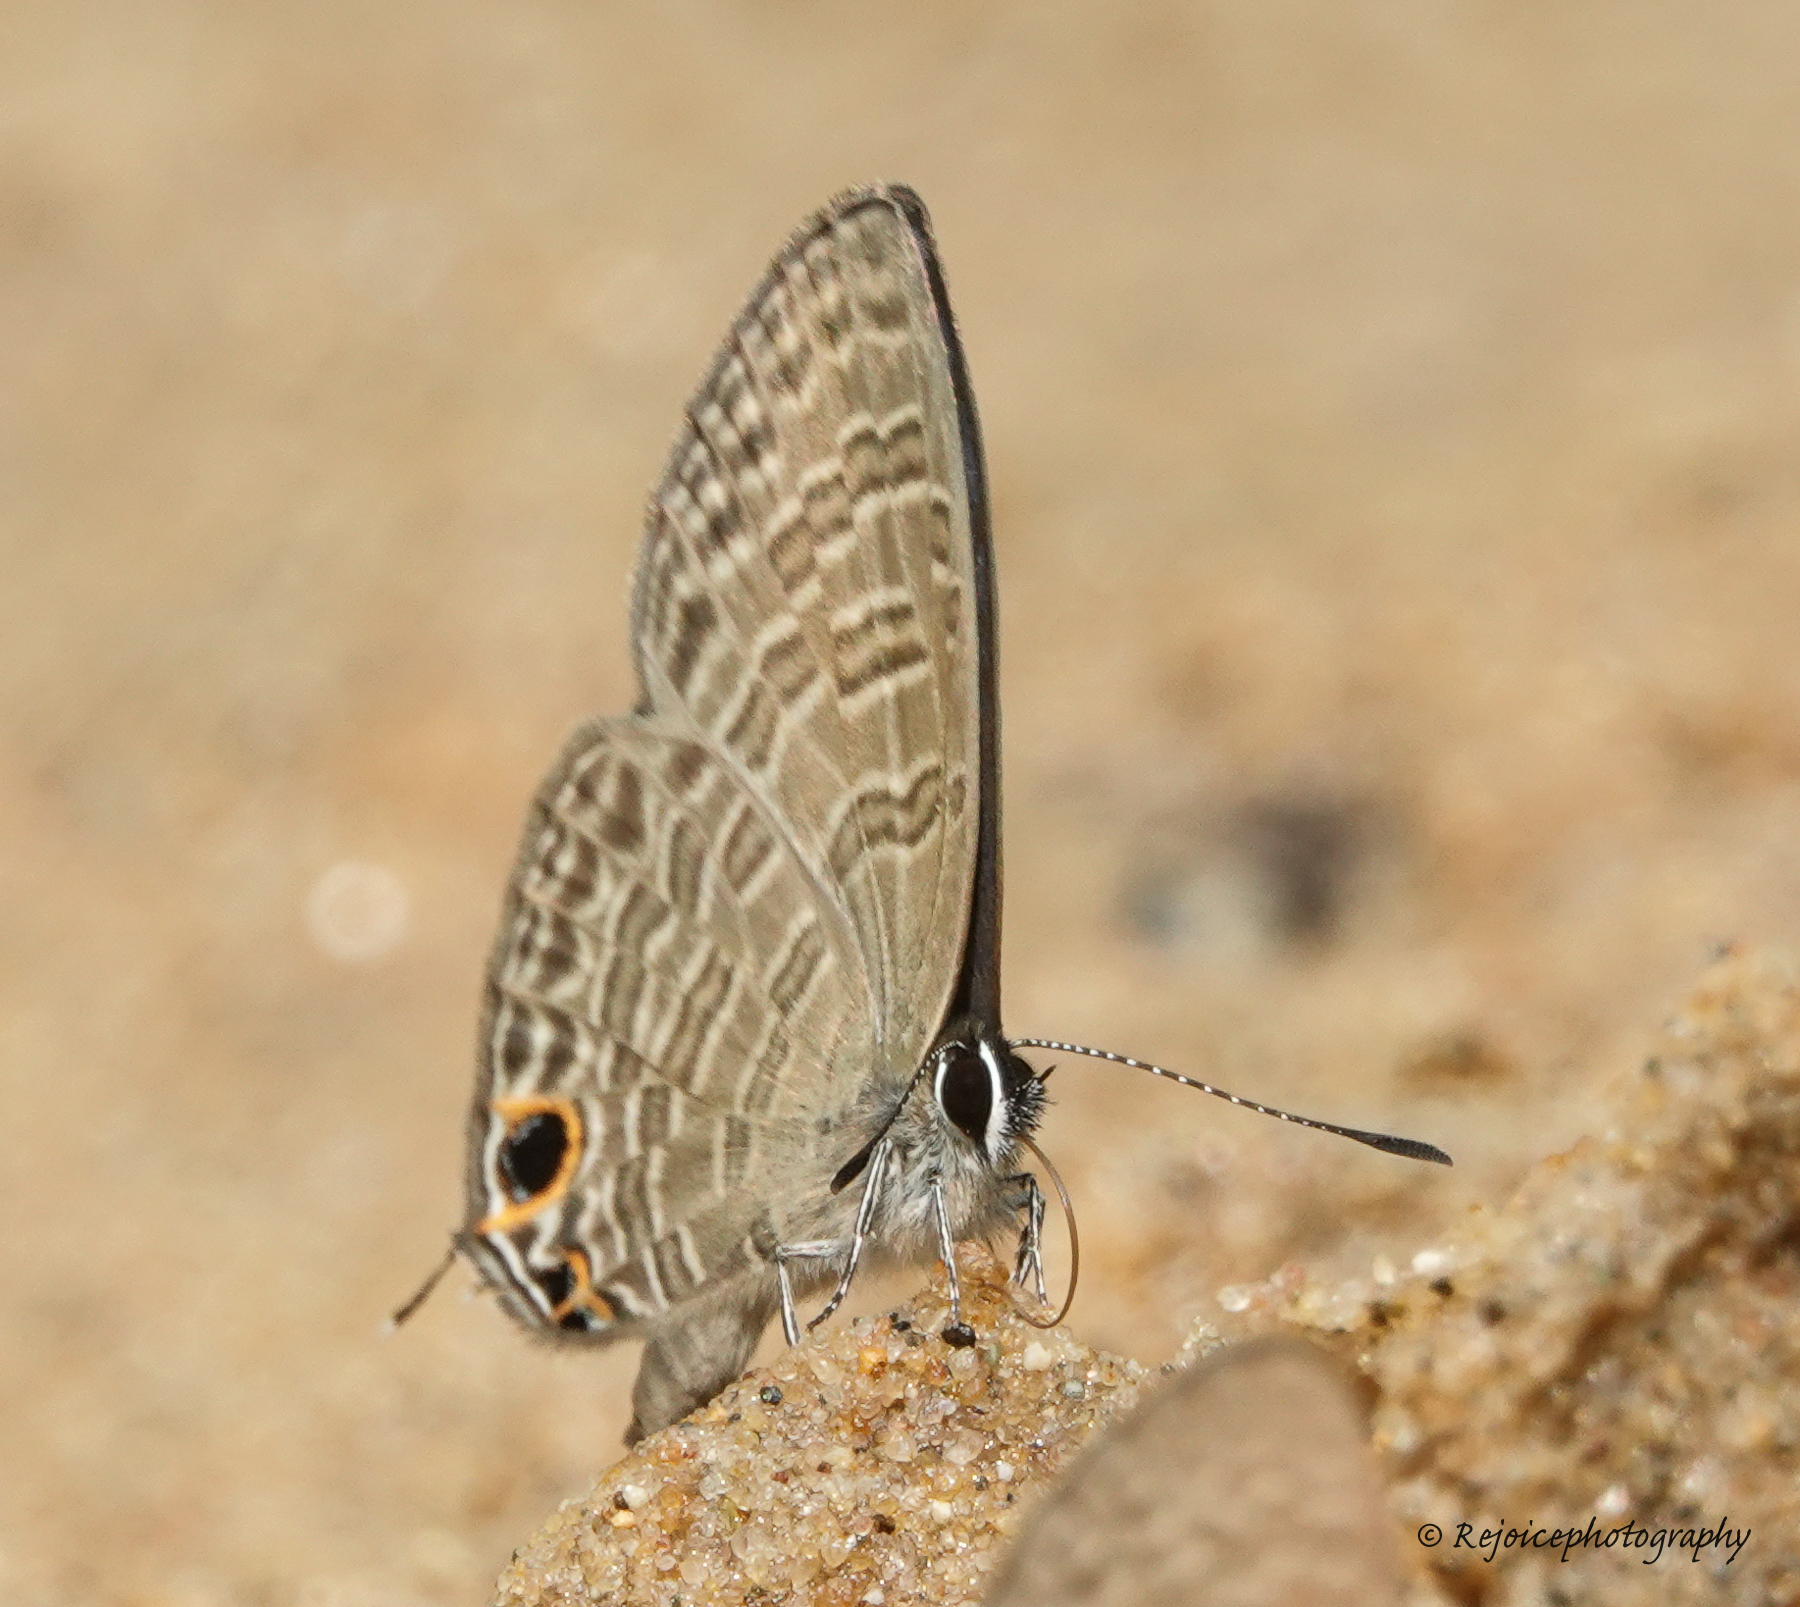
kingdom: Animalia
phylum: Arthropoda
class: Insecta
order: Lepidoptera
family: Lycaenidae
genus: Prosotas
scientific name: Prosotas nora
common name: Common line blue
